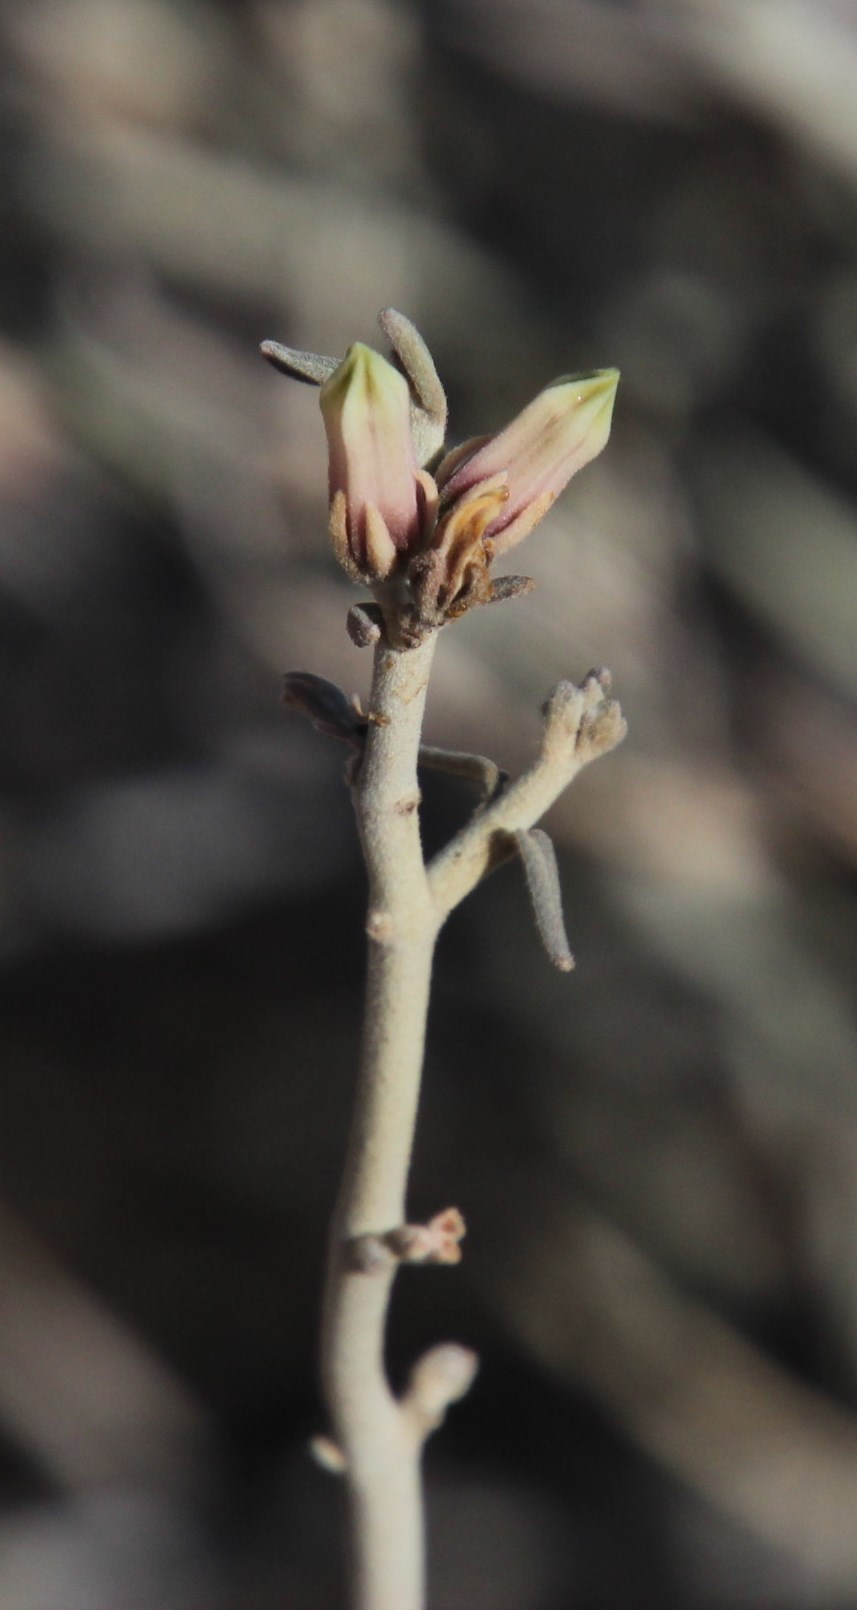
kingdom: Plantae
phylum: Tracheophyta
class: Magnoliopsida
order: Gentianales
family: Apocynaceae
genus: Microloma
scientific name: Microloma incanum
